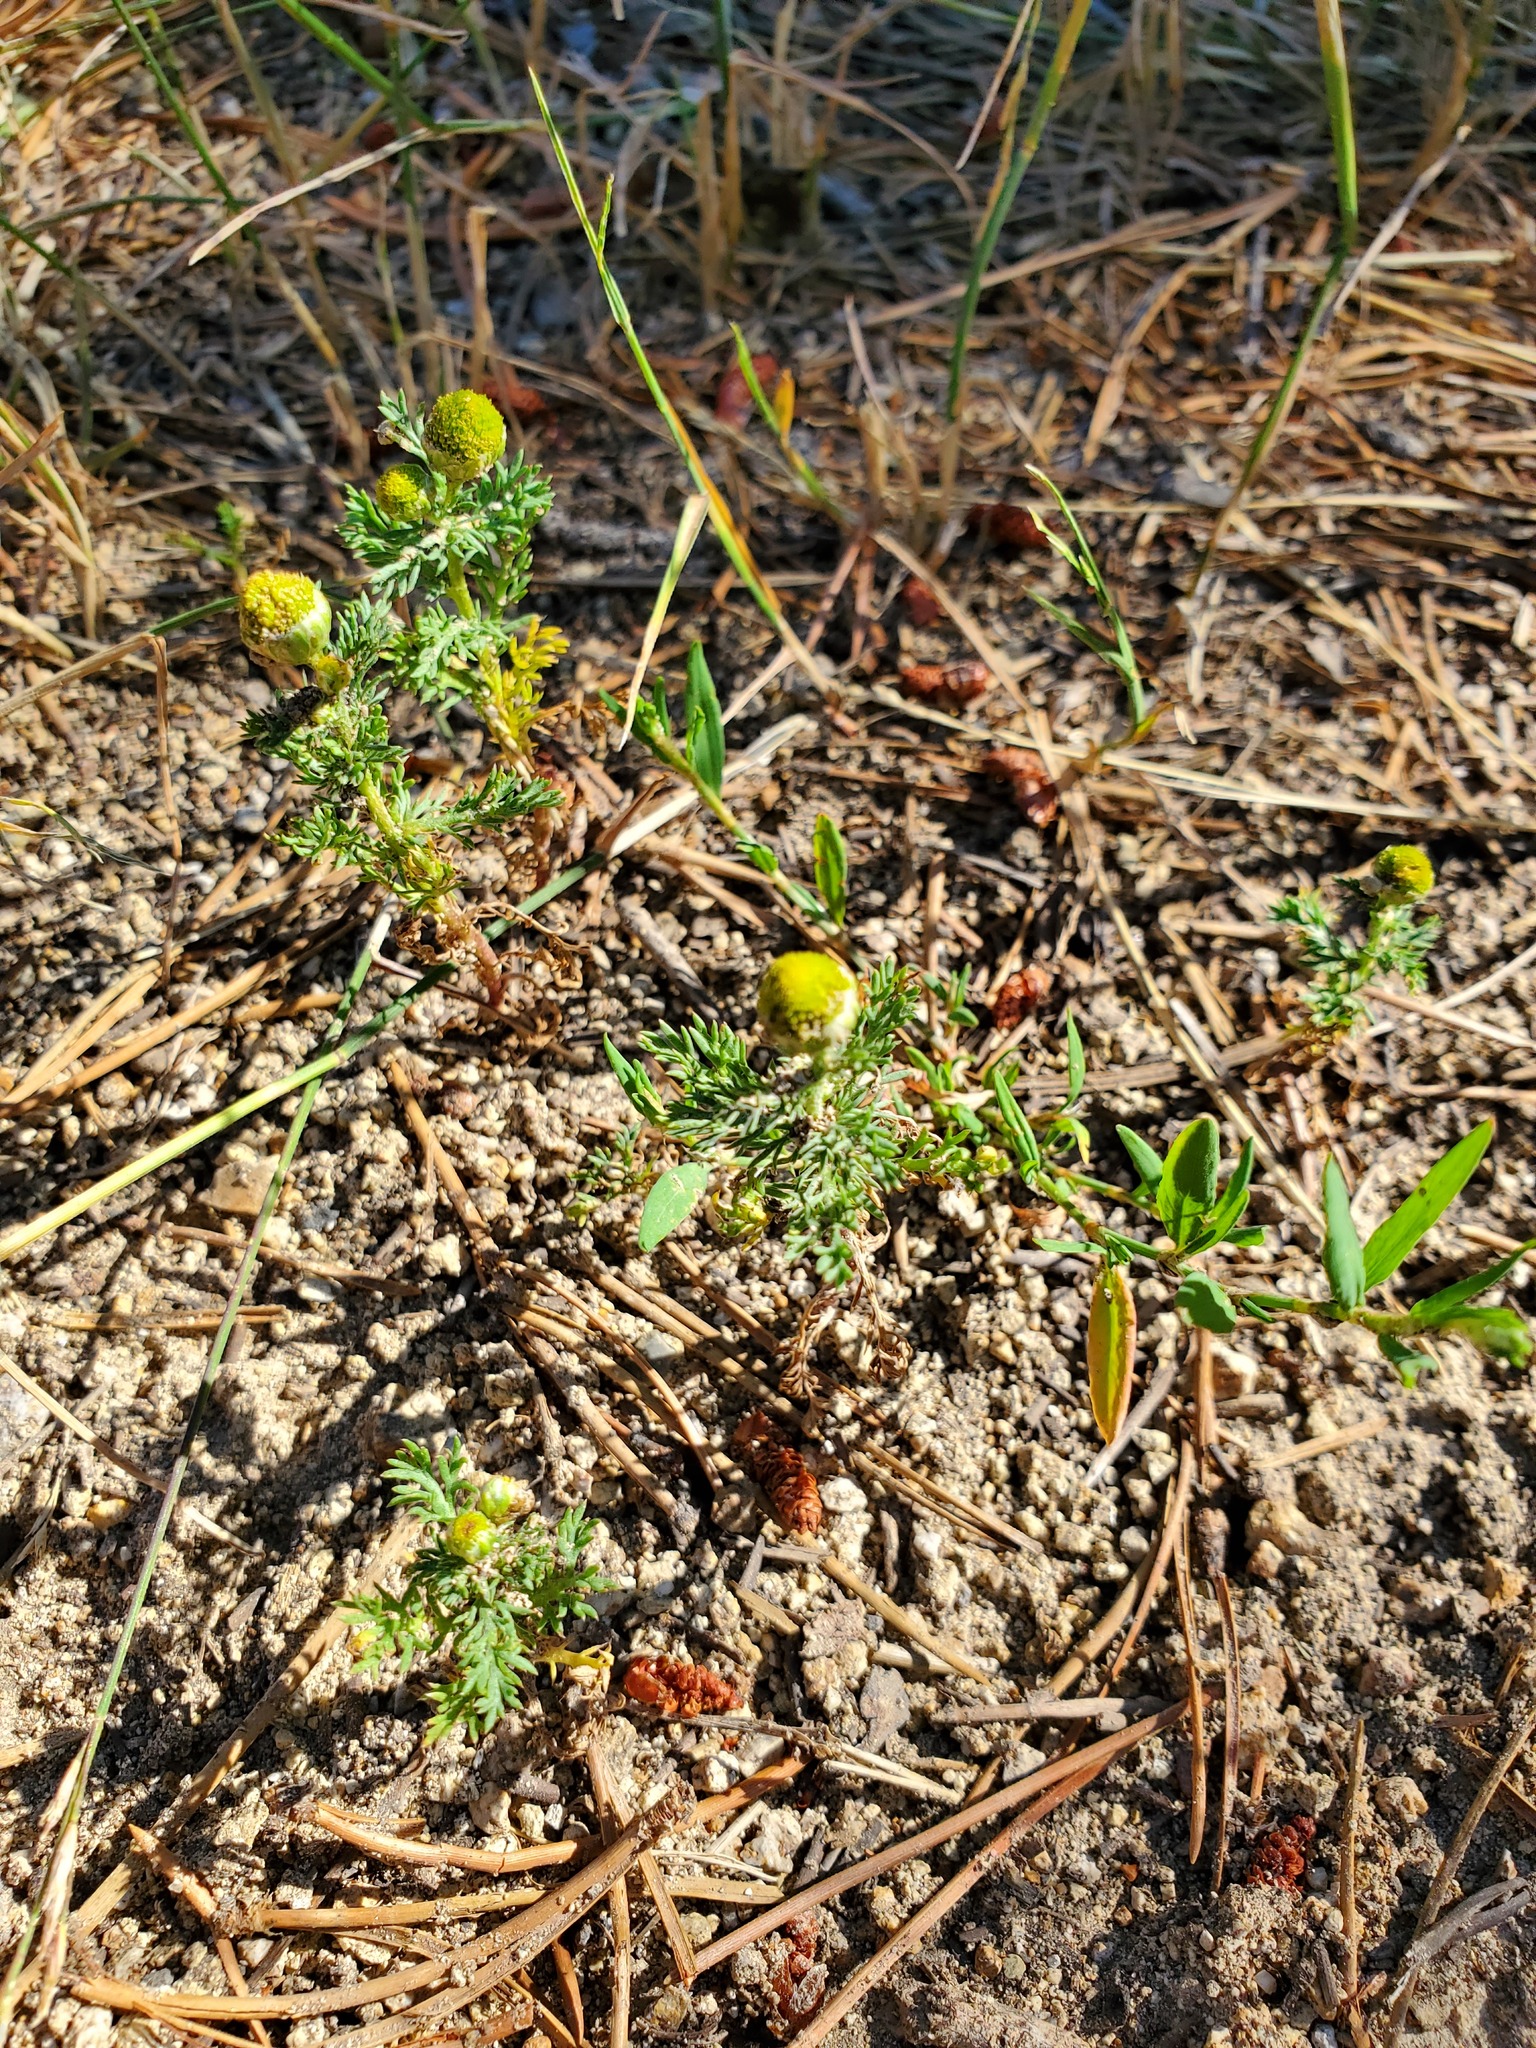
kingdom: Plantae
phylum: Tracheophyta
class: Magnoliopsida
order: Asterales
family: Asteraceae
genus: Matricaria
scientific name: Matricaria discoidea
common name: Disc mayweed
